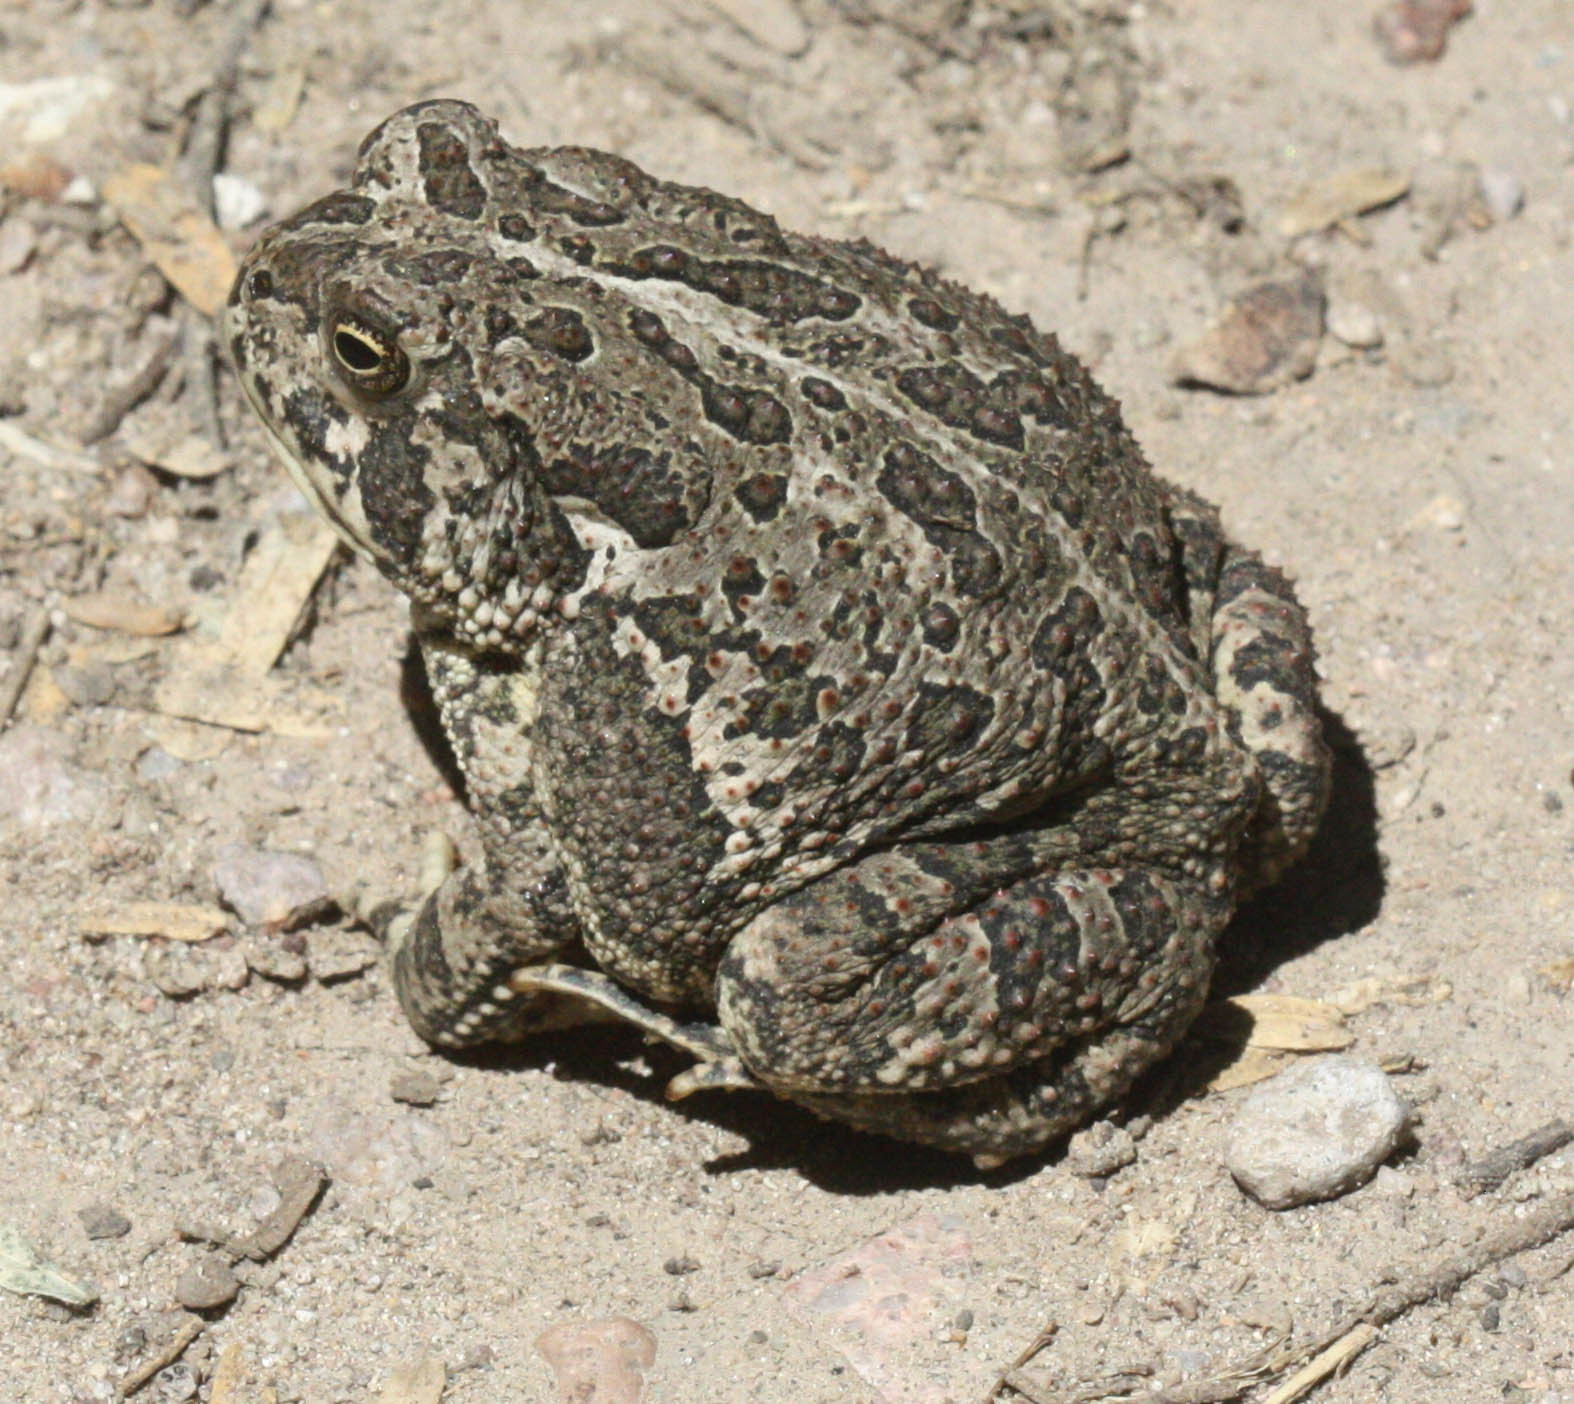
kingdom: Animalia
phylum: Chordata
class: Amphibia
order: Anura
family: Bufonidae
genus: Anaxyrus
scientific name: Anaxyrus woodhousii
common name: Woodhouse's toad
